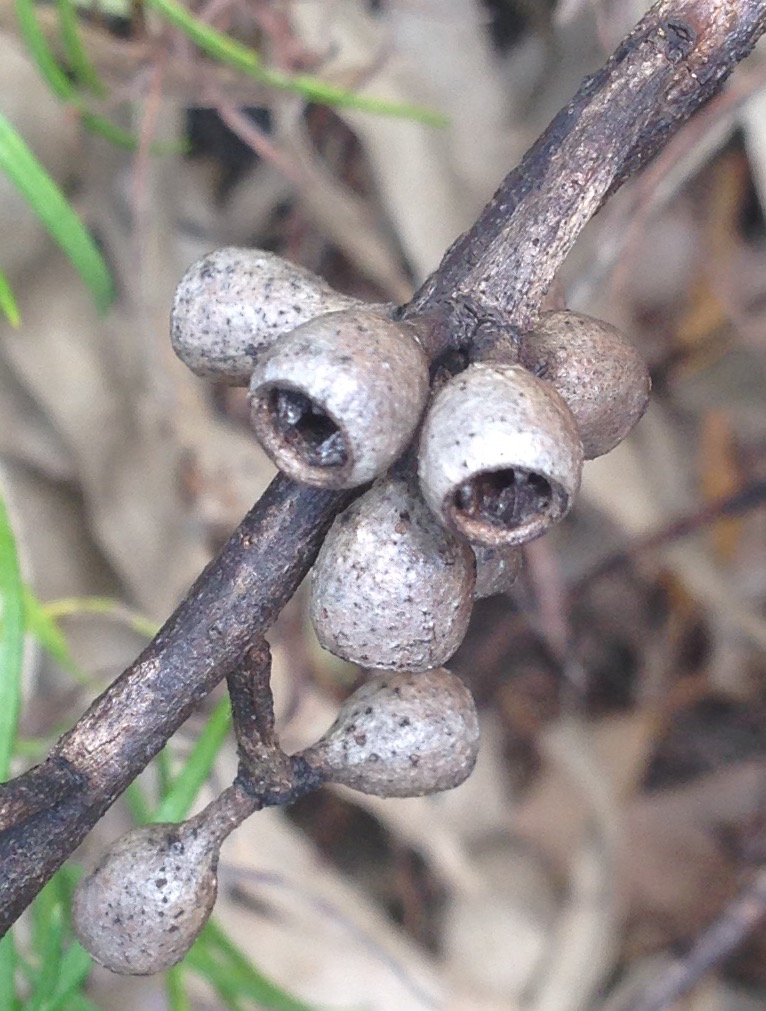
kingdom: Plantae
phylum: Tracheophyta
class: Magnoliopsida
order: Myrtales
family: Myrtaceae
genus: Eucalyptus
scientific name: Eucalyptus cypellocarpa
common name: Mountain grey gum
